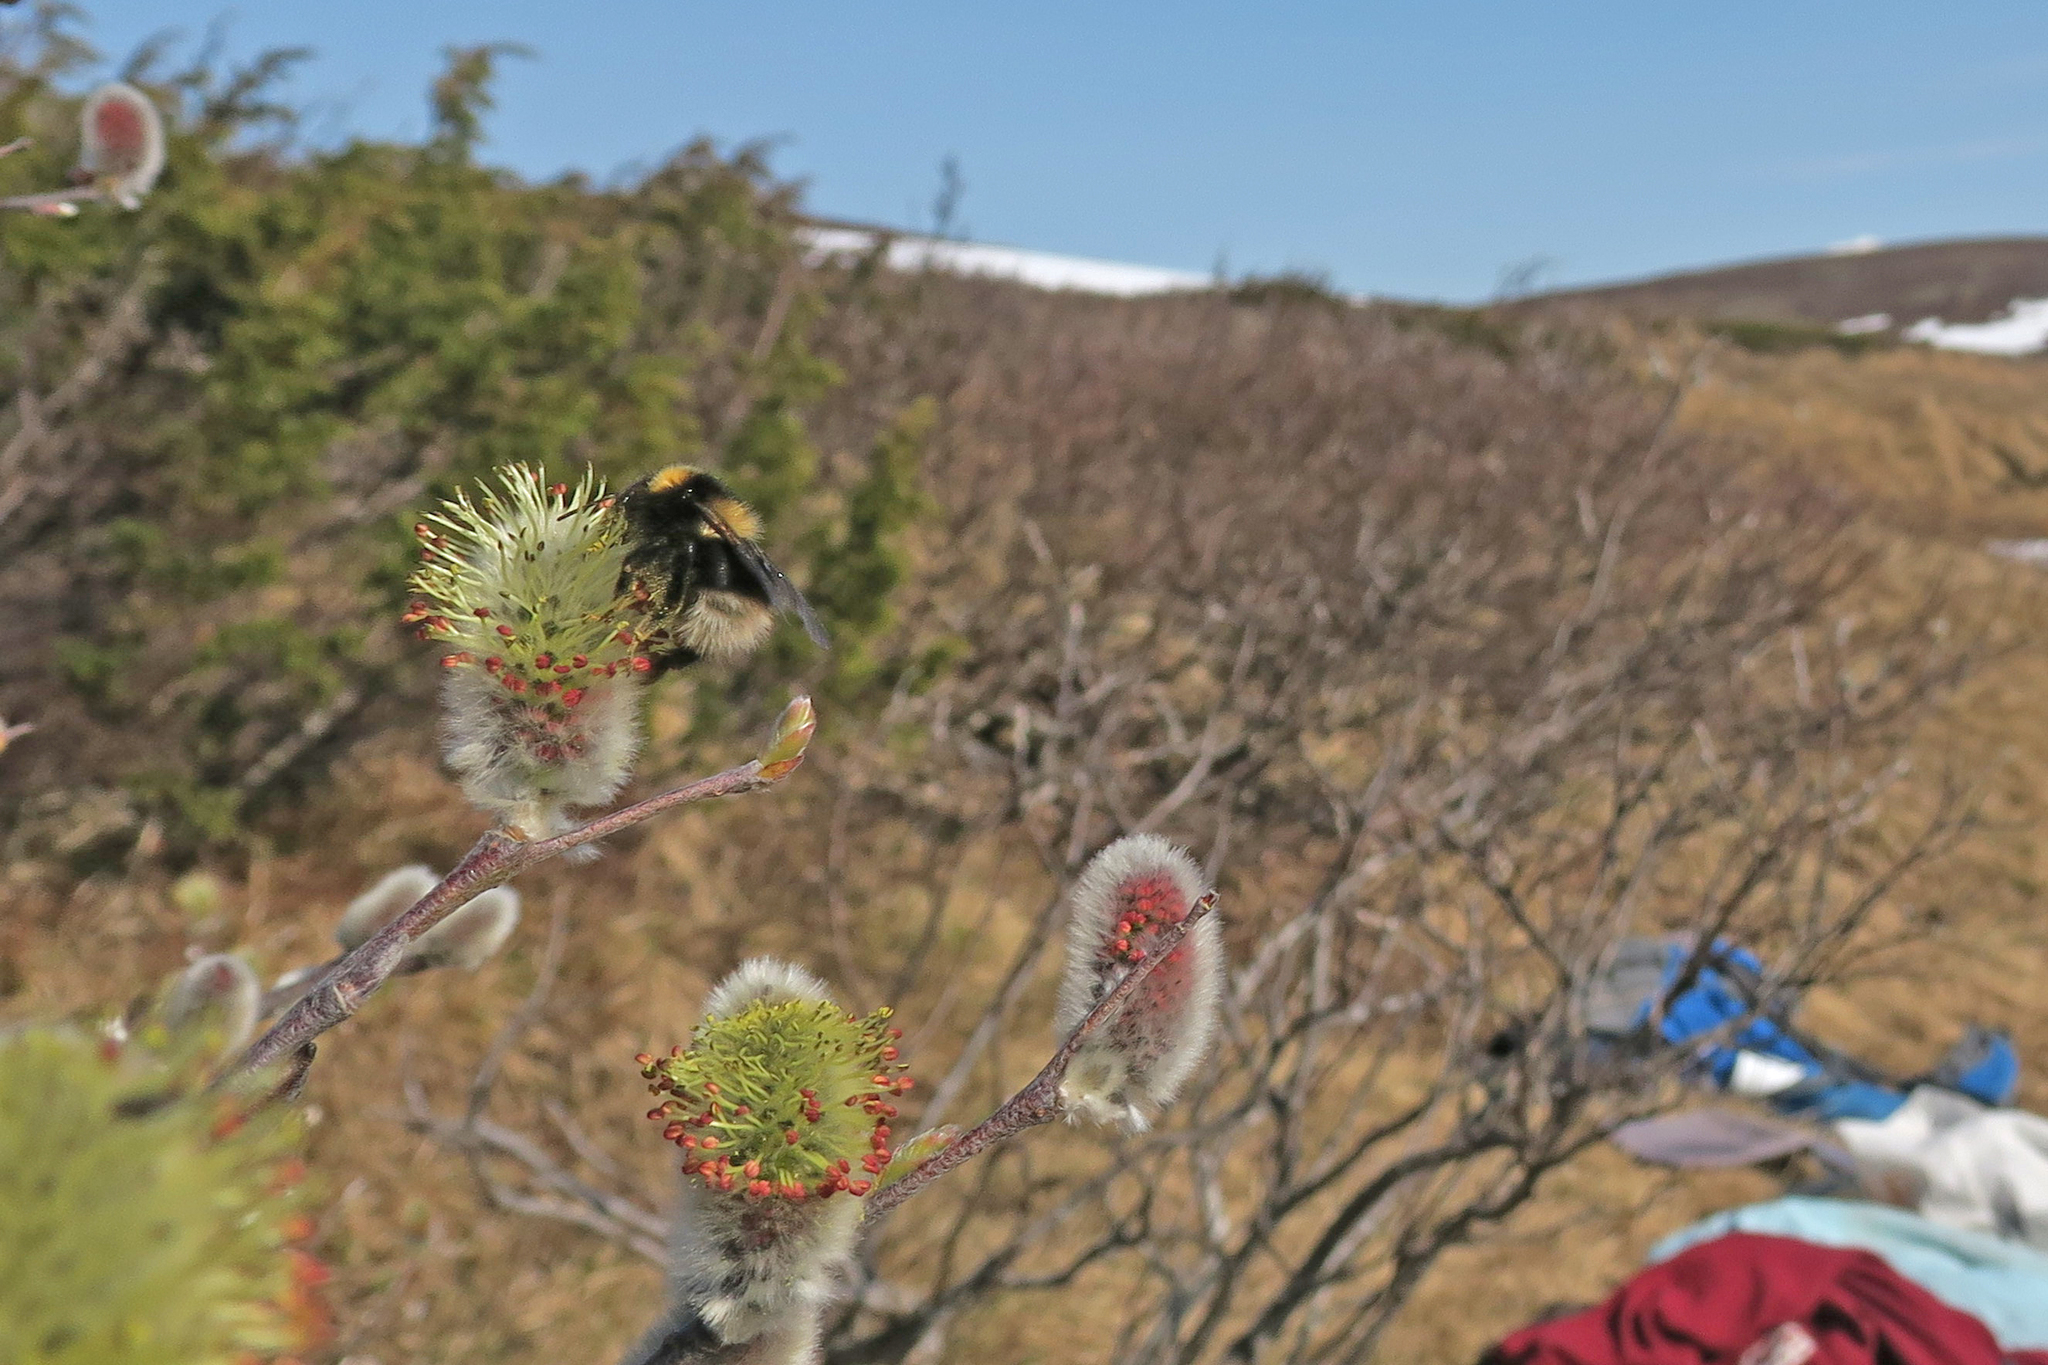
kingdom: Animalia
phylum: Arthropoda
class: Insecta
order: Hymenoptera
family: Apidae
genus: Bombus
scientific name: Bombus jonellus
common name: Heath humble-bee
